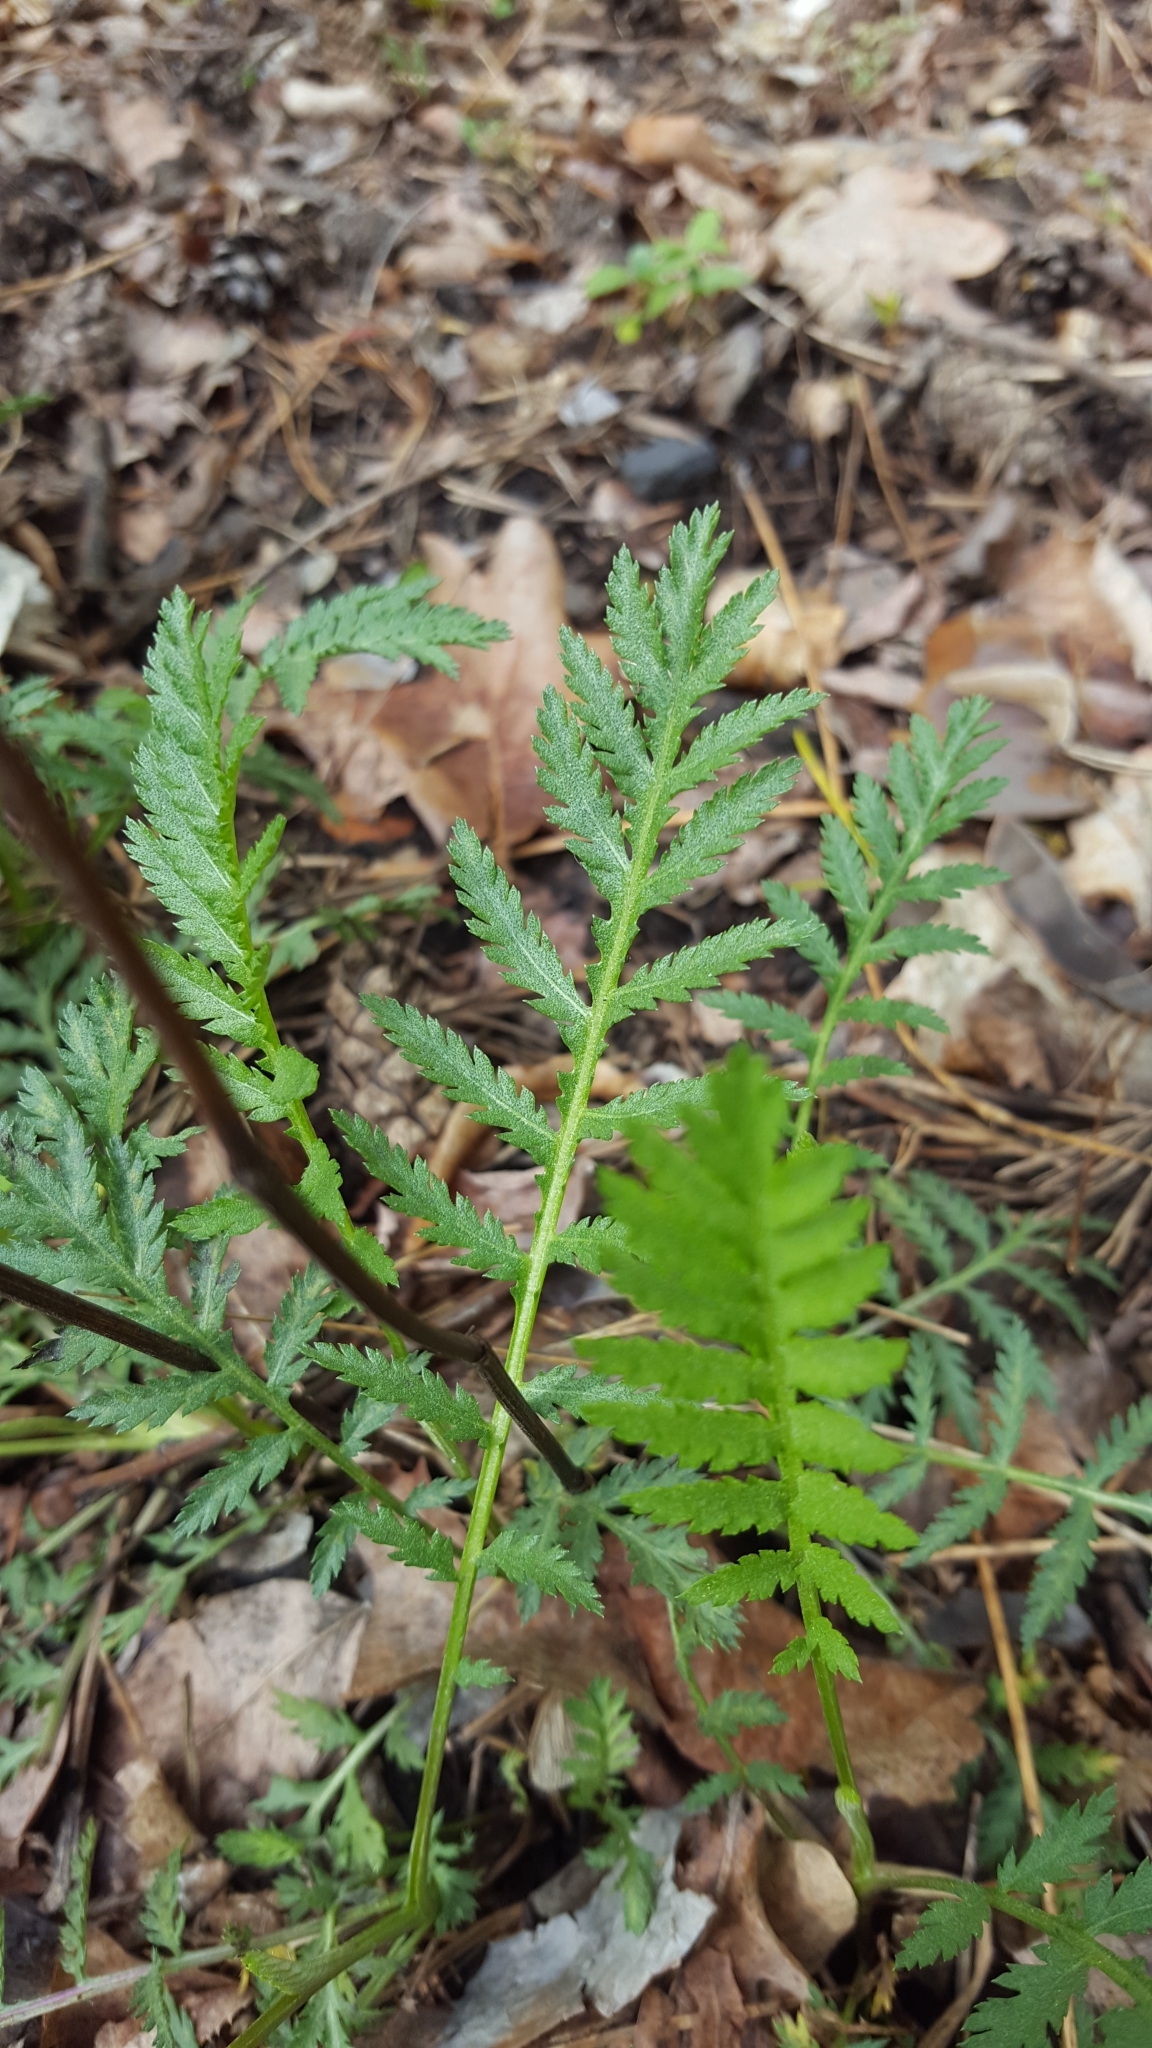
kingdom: Plantae
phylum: Tracheophyta
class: Magnoliopsida
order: Asterales
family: Asteraceae
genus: Tanacetum
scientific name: Tanacetum vulgare
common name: Common tansy
